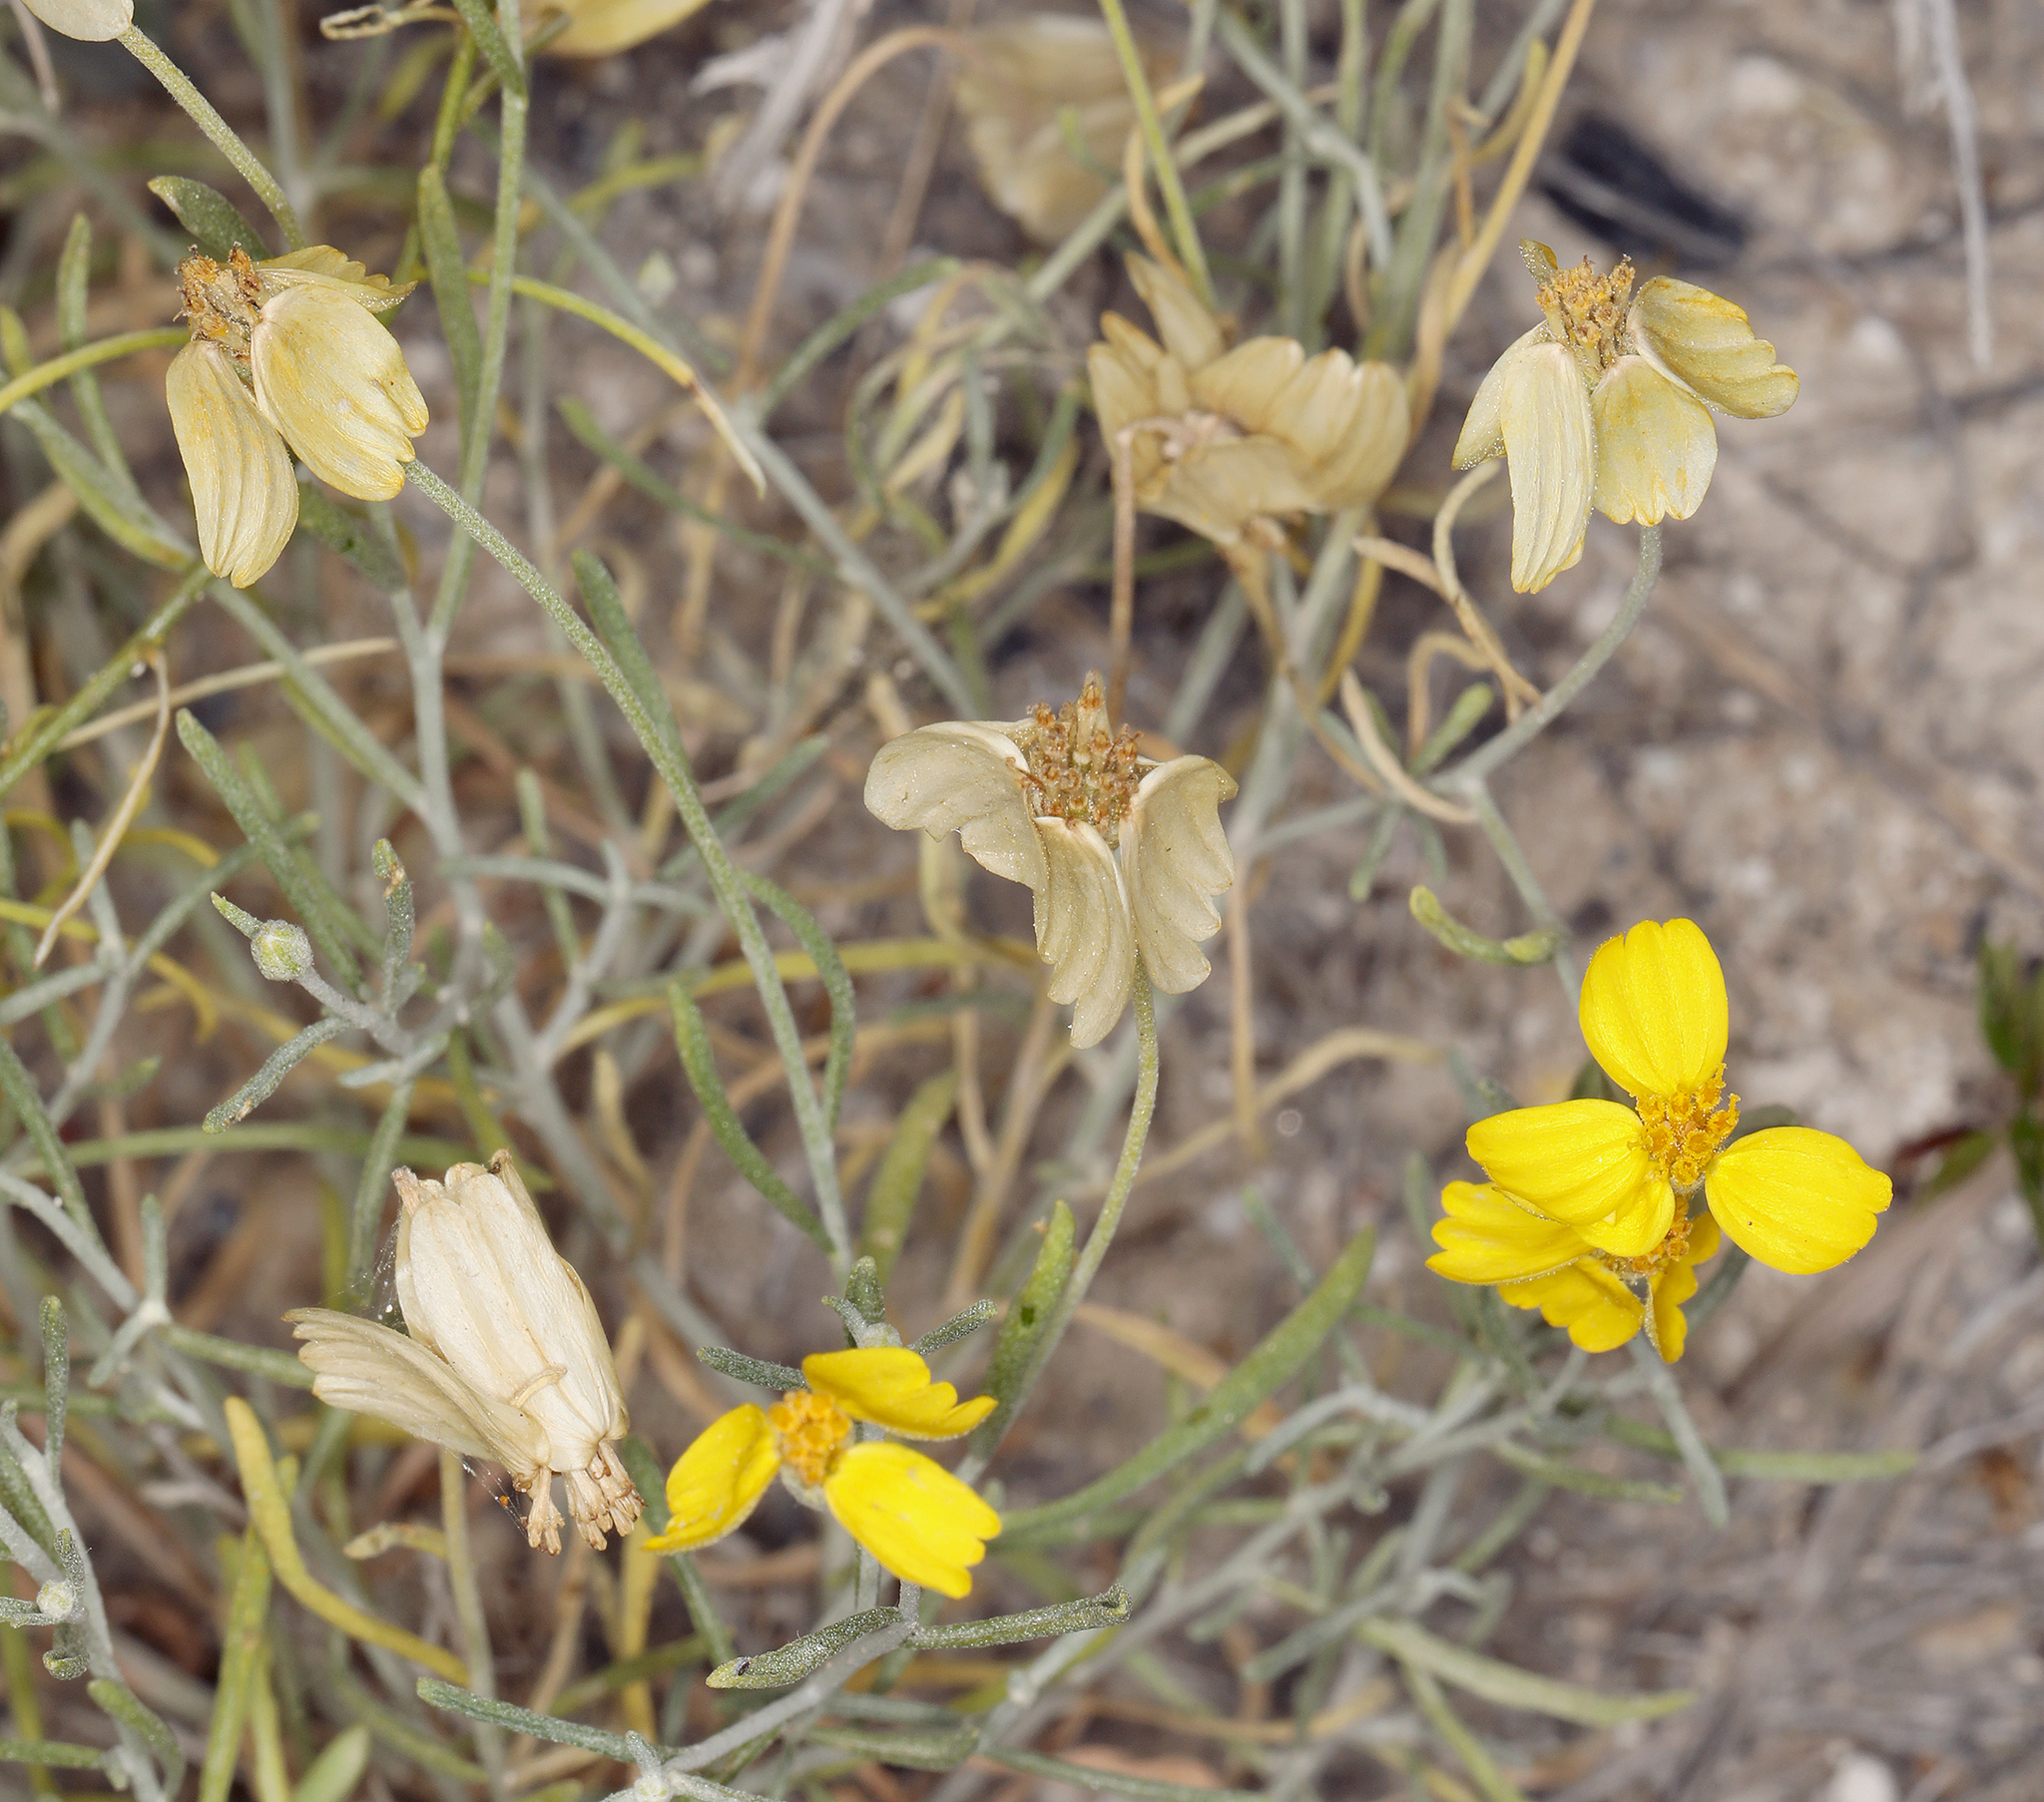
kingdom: Plantae
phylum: Tracheophyta
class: Magnoliopsida
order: Asterales
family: Asteraceae
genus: Psilostrophe
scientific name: Psilostrophe cooperi
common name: White-stem paper-flower
